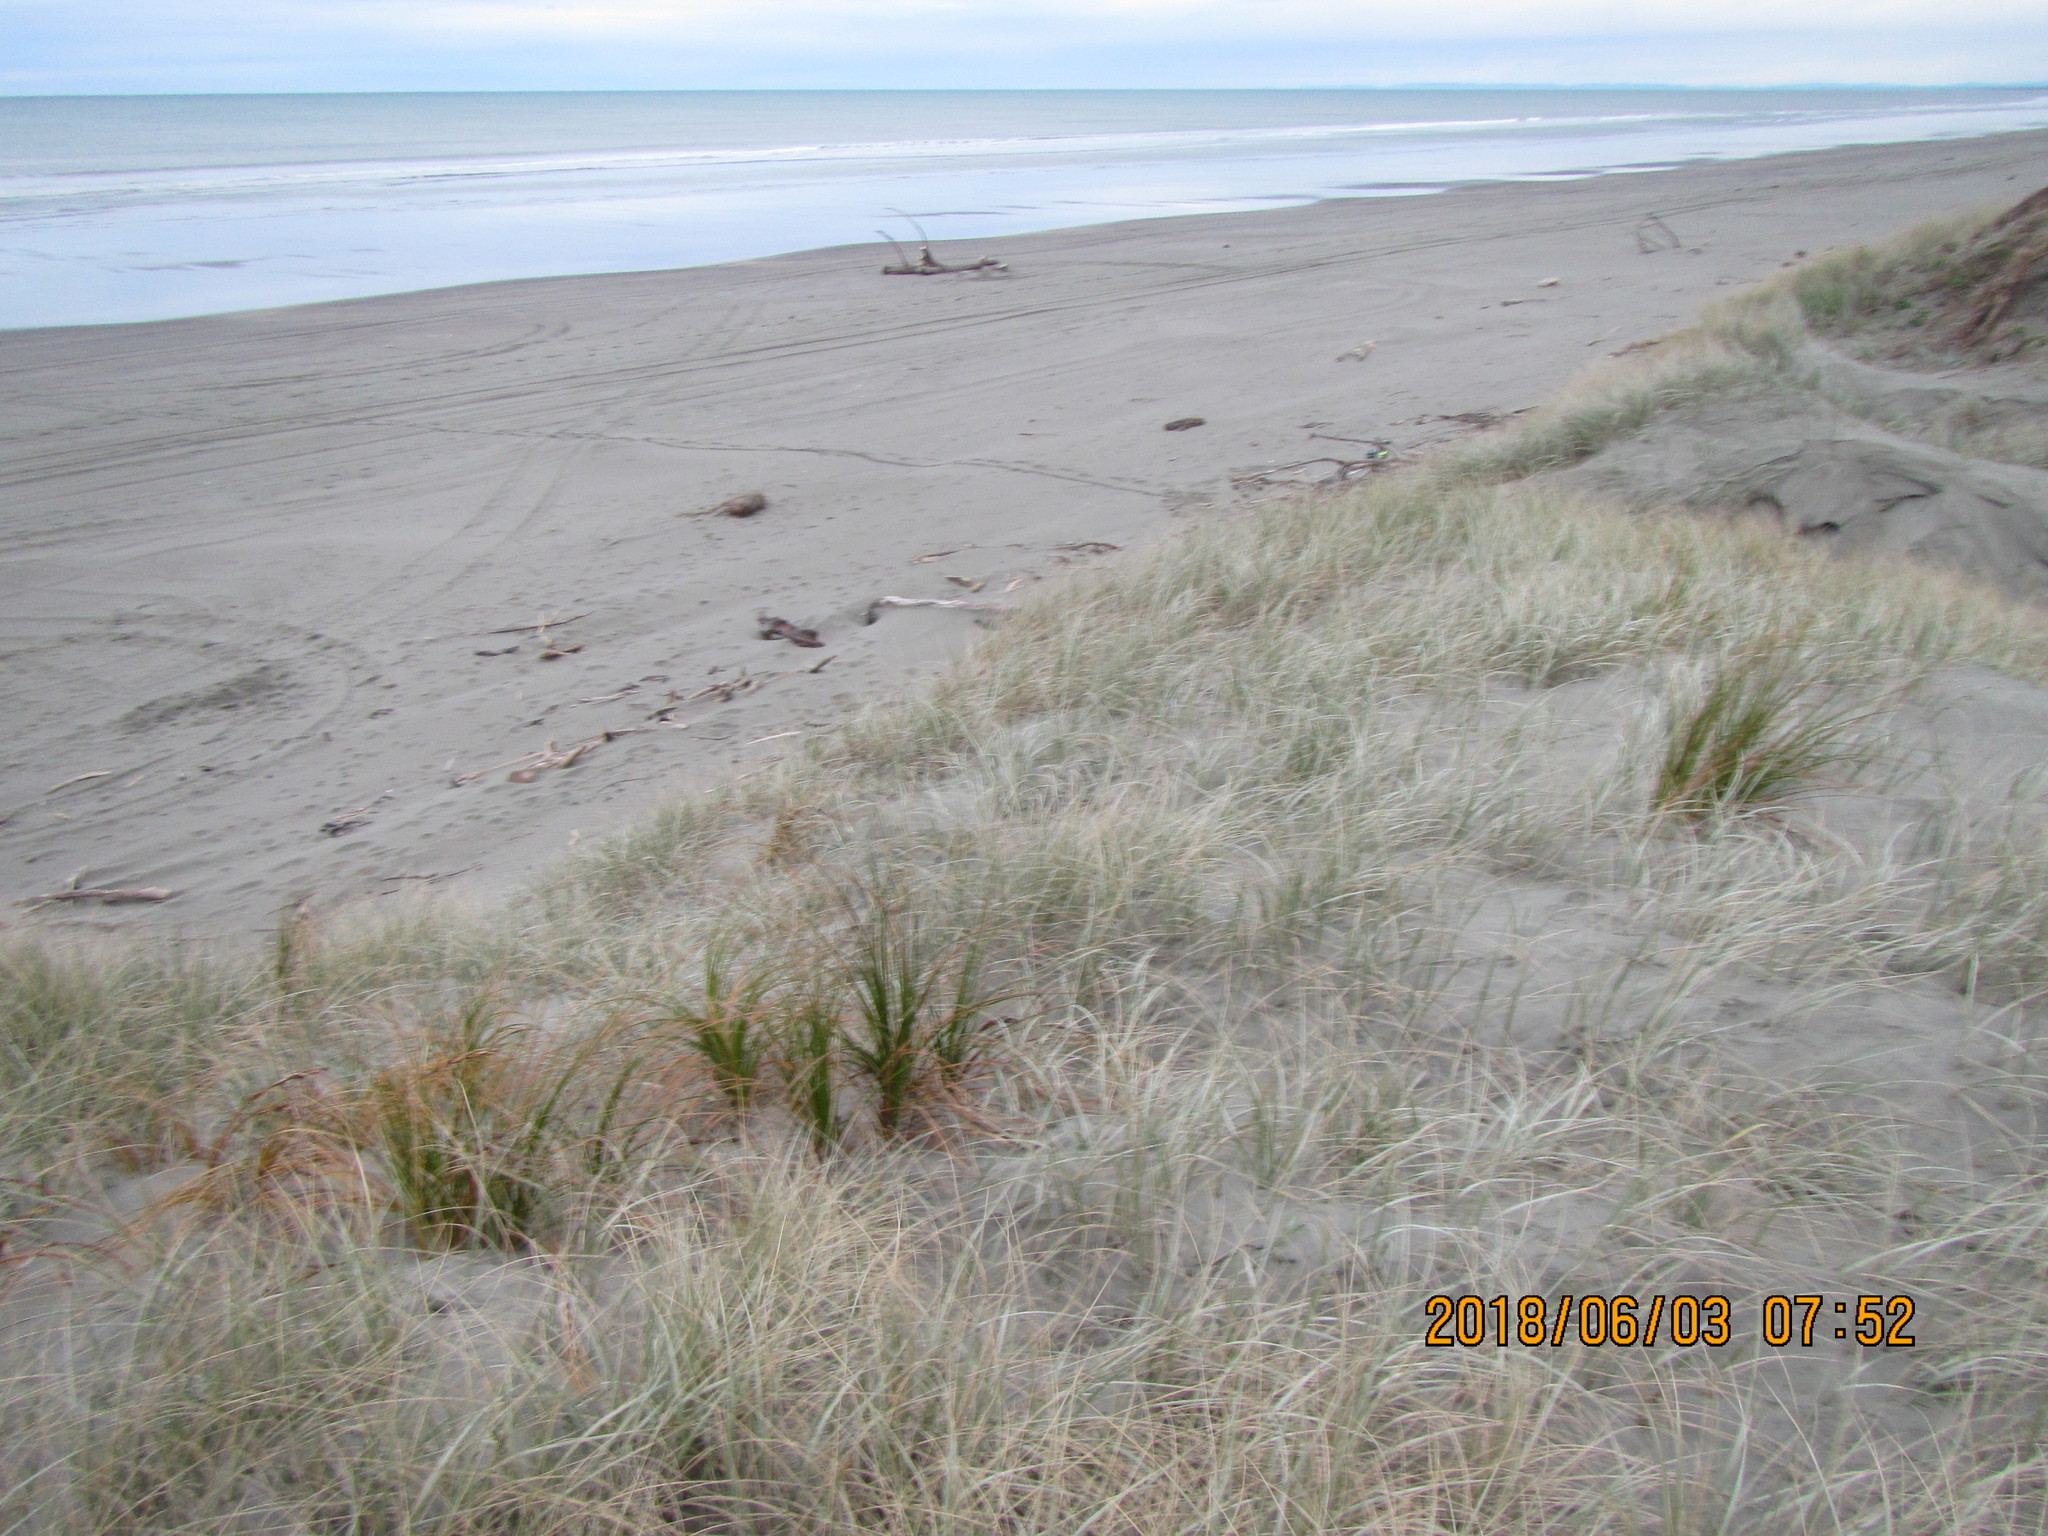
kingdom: Plantae
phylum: Tracheophyta
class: Liliopsida
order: Poales
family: Cyperaceae
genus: Ficinia
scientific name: Ficinia spiralis
